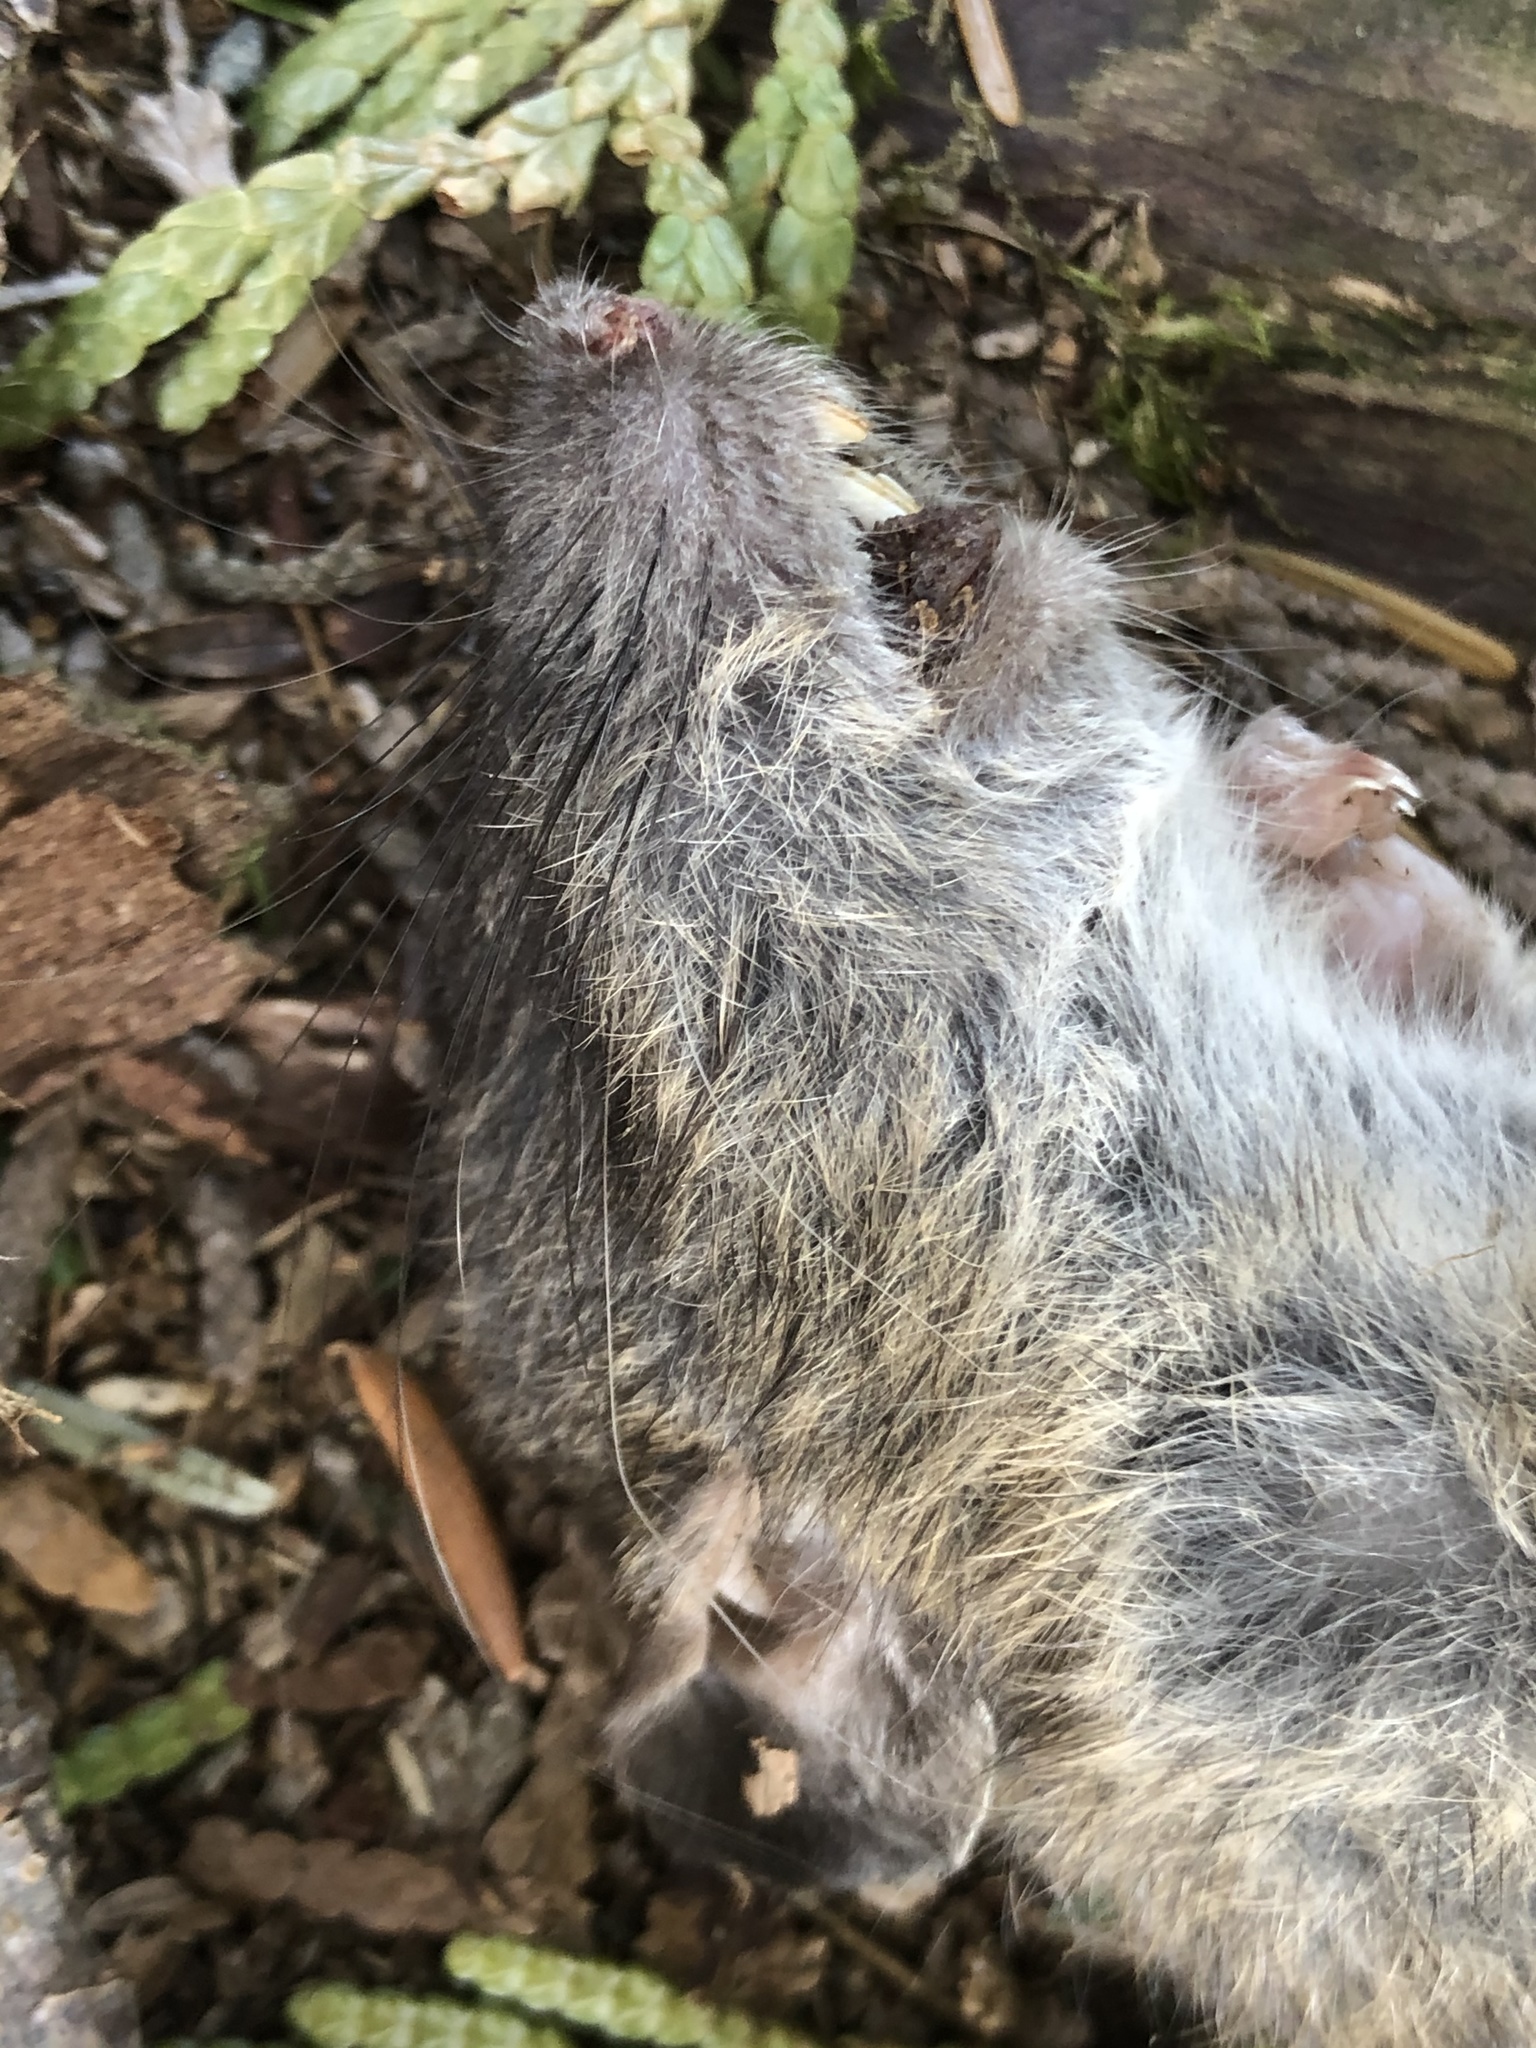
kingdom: Animalia
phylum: Chordata
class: Mammalia
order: Rodentia
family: Muridae
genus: Rattus
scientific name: Rattus norvegicus
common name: Brown rat
